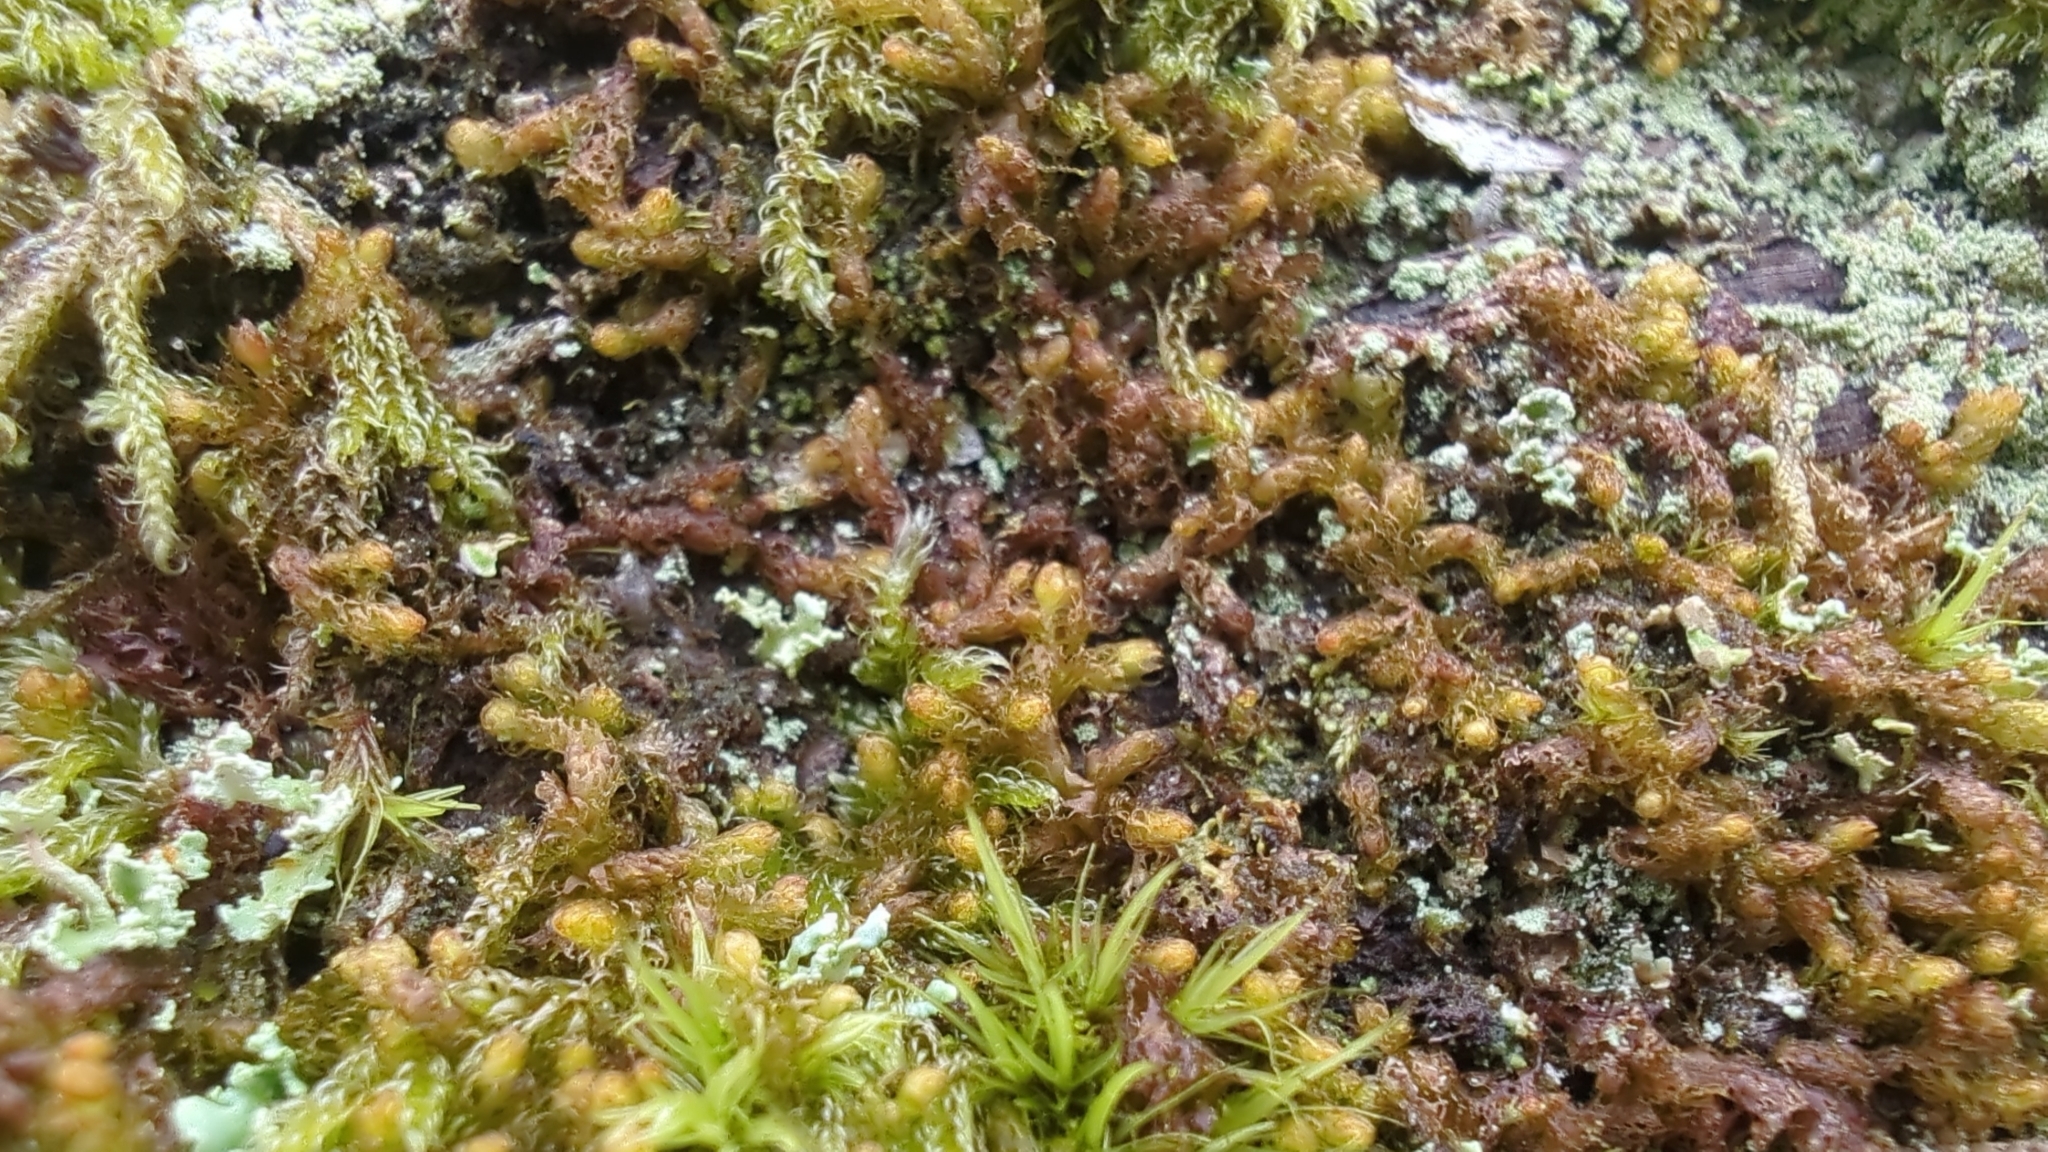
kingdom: Plantae
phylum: Marchantiophyta
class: Jungermanniopsida
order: Ptilidiales
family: Ptilidiaceae
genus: Ptilidium
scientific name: Ptilidium californicum
